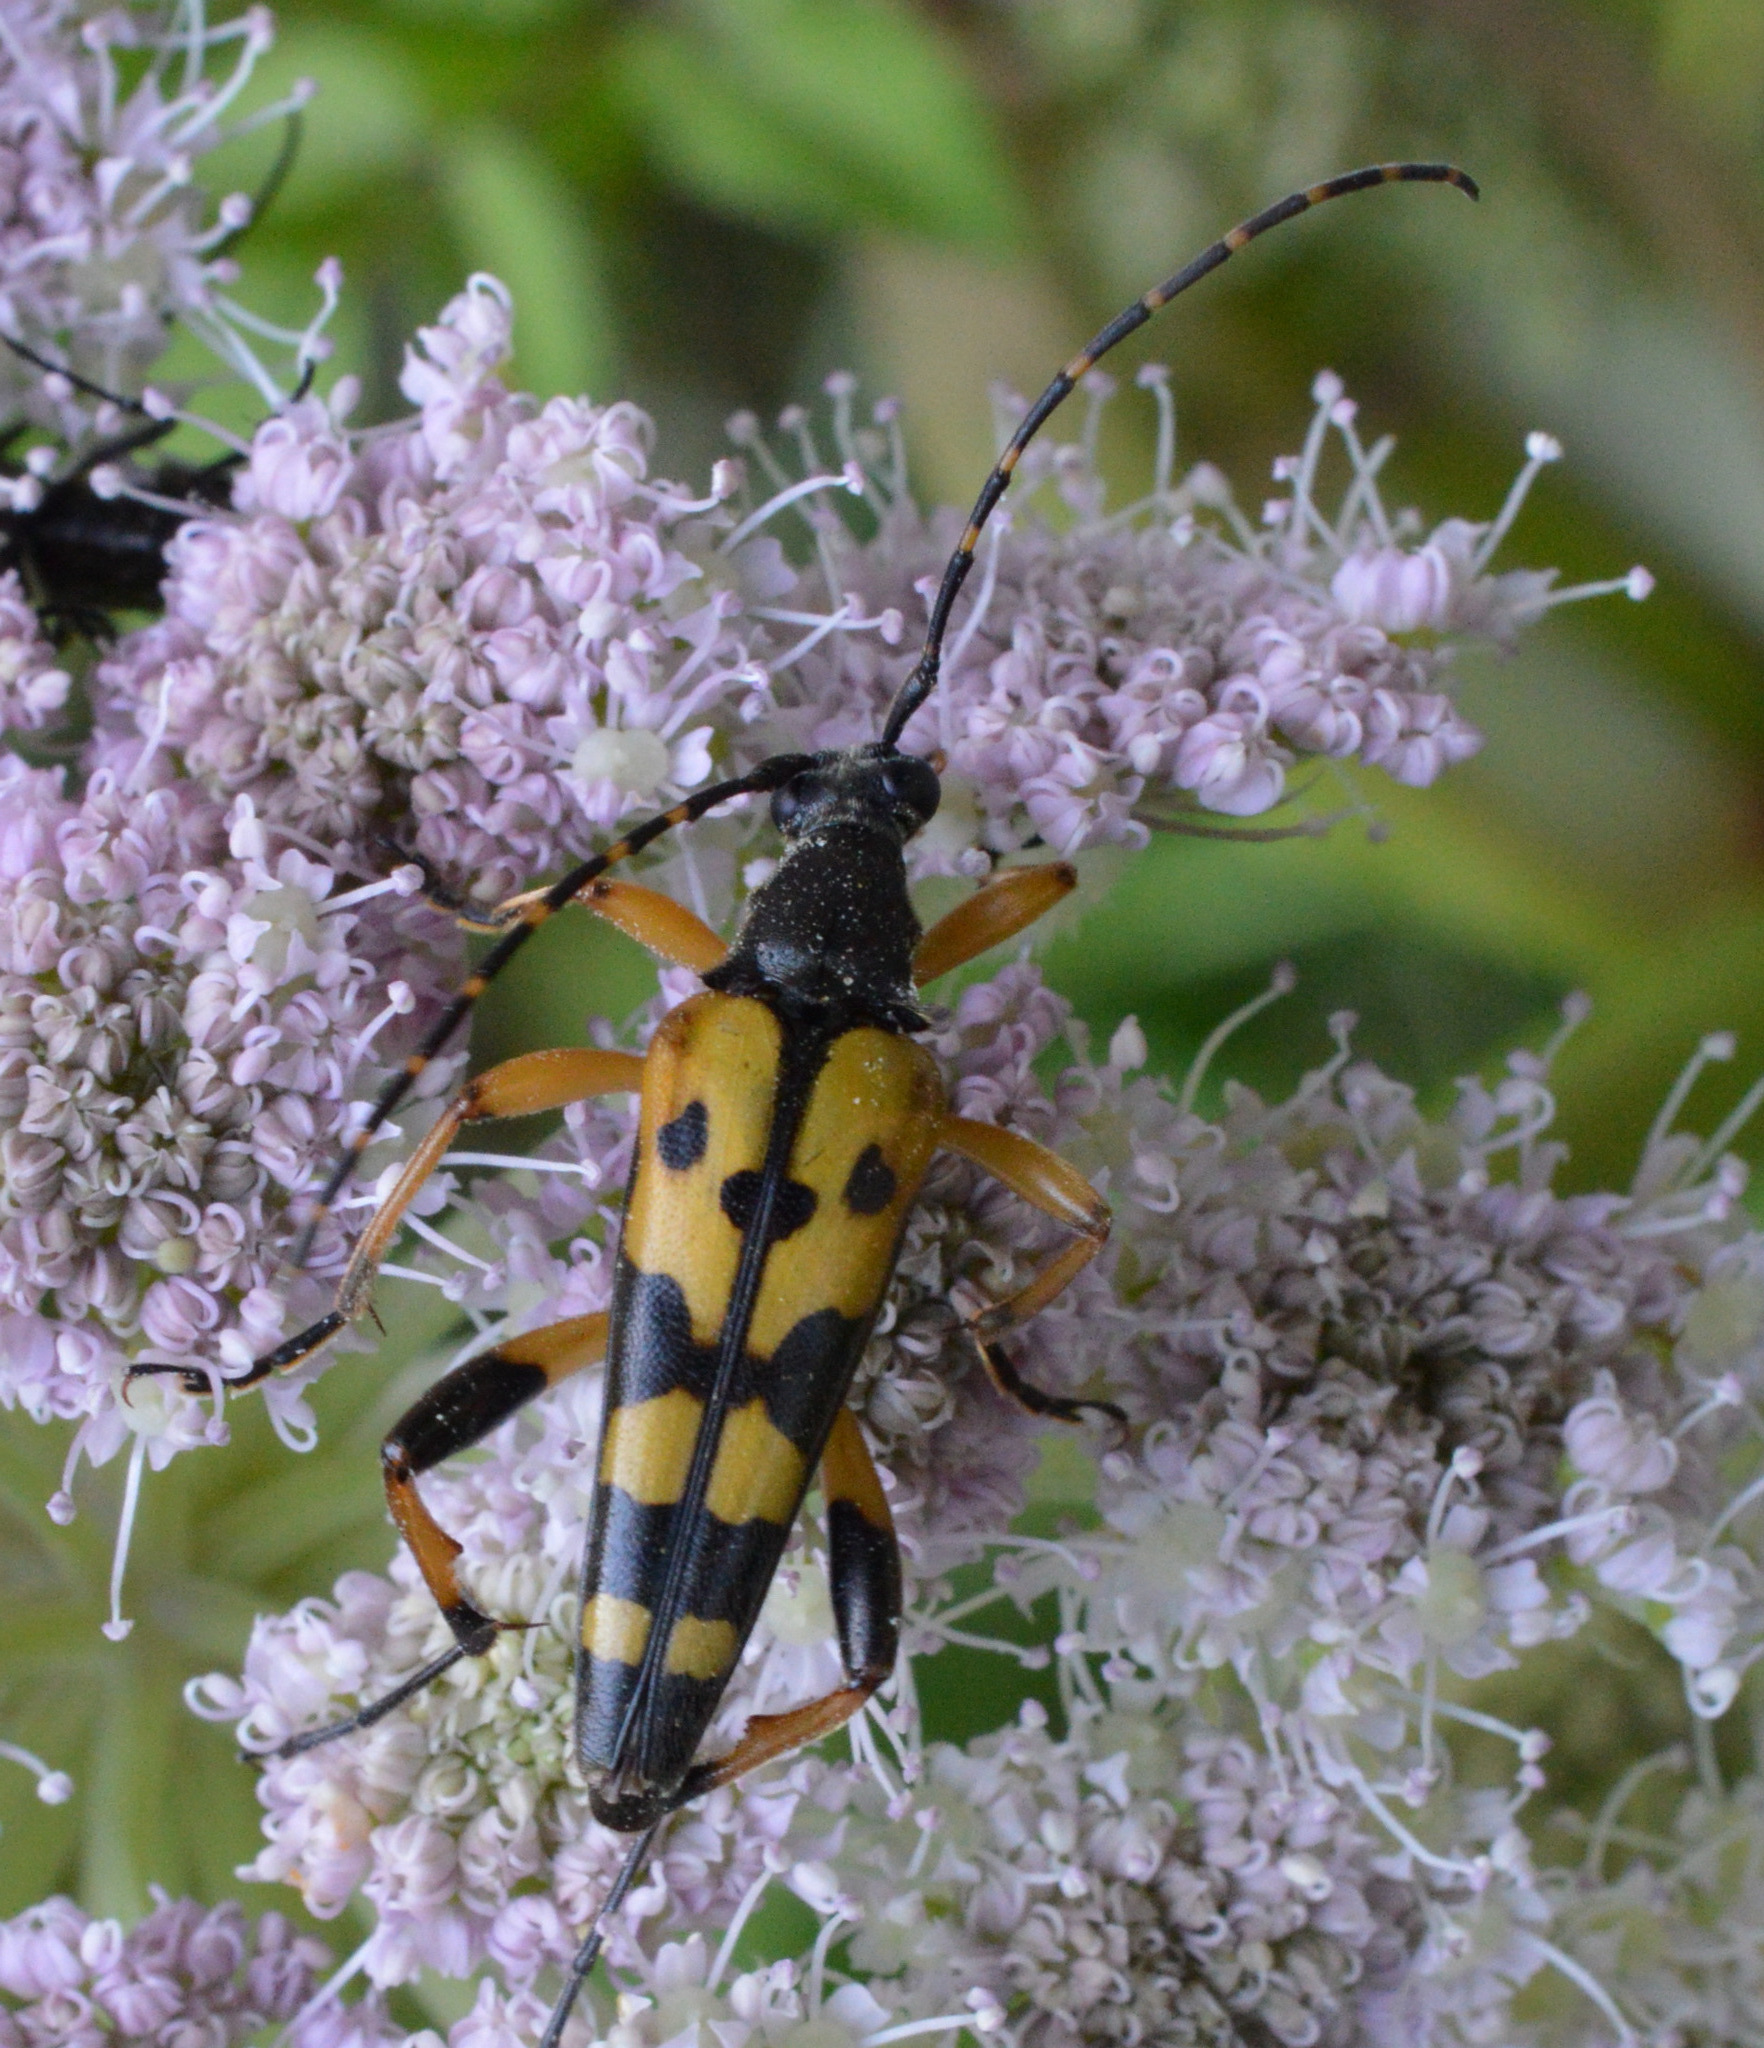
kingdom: Animalia
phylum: Arthropoda
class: Insecta
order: Coleoptera
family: Cerambycidae
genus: Rutpela
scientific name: Rutpela maculata
